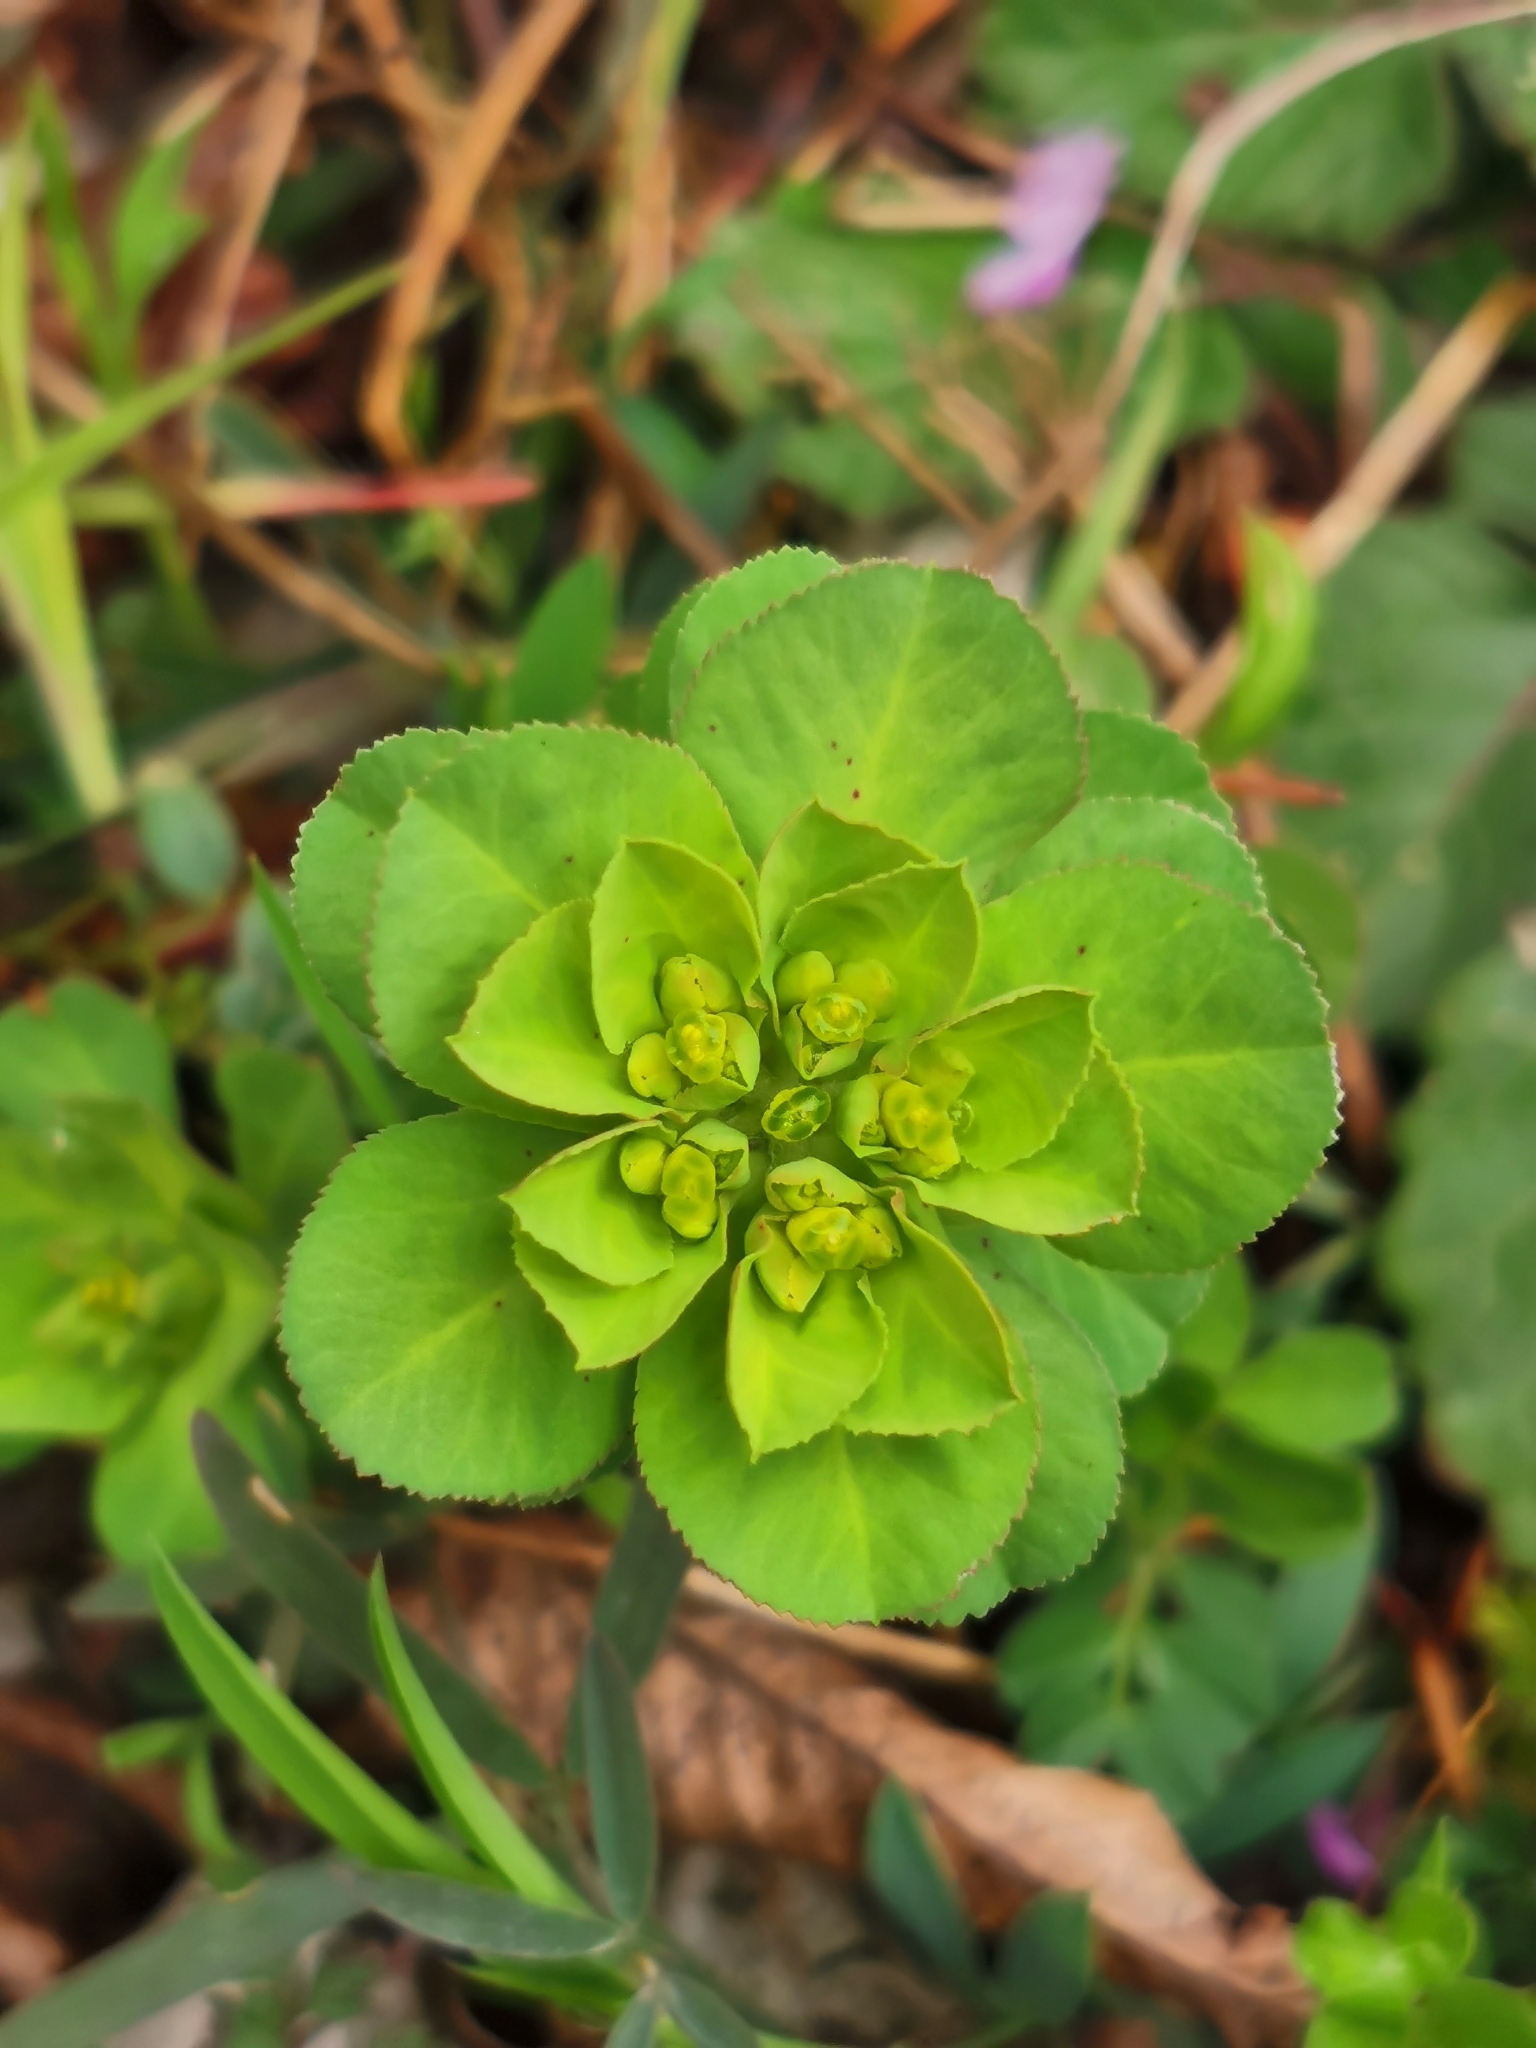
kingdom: Plantae
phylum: Tracheophyta
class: Magnoliopsida
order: Malpighiales
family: Euphorbiaceae
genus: Euphorbia
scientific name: Euphorbia helioscopia
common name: Sun spurge
